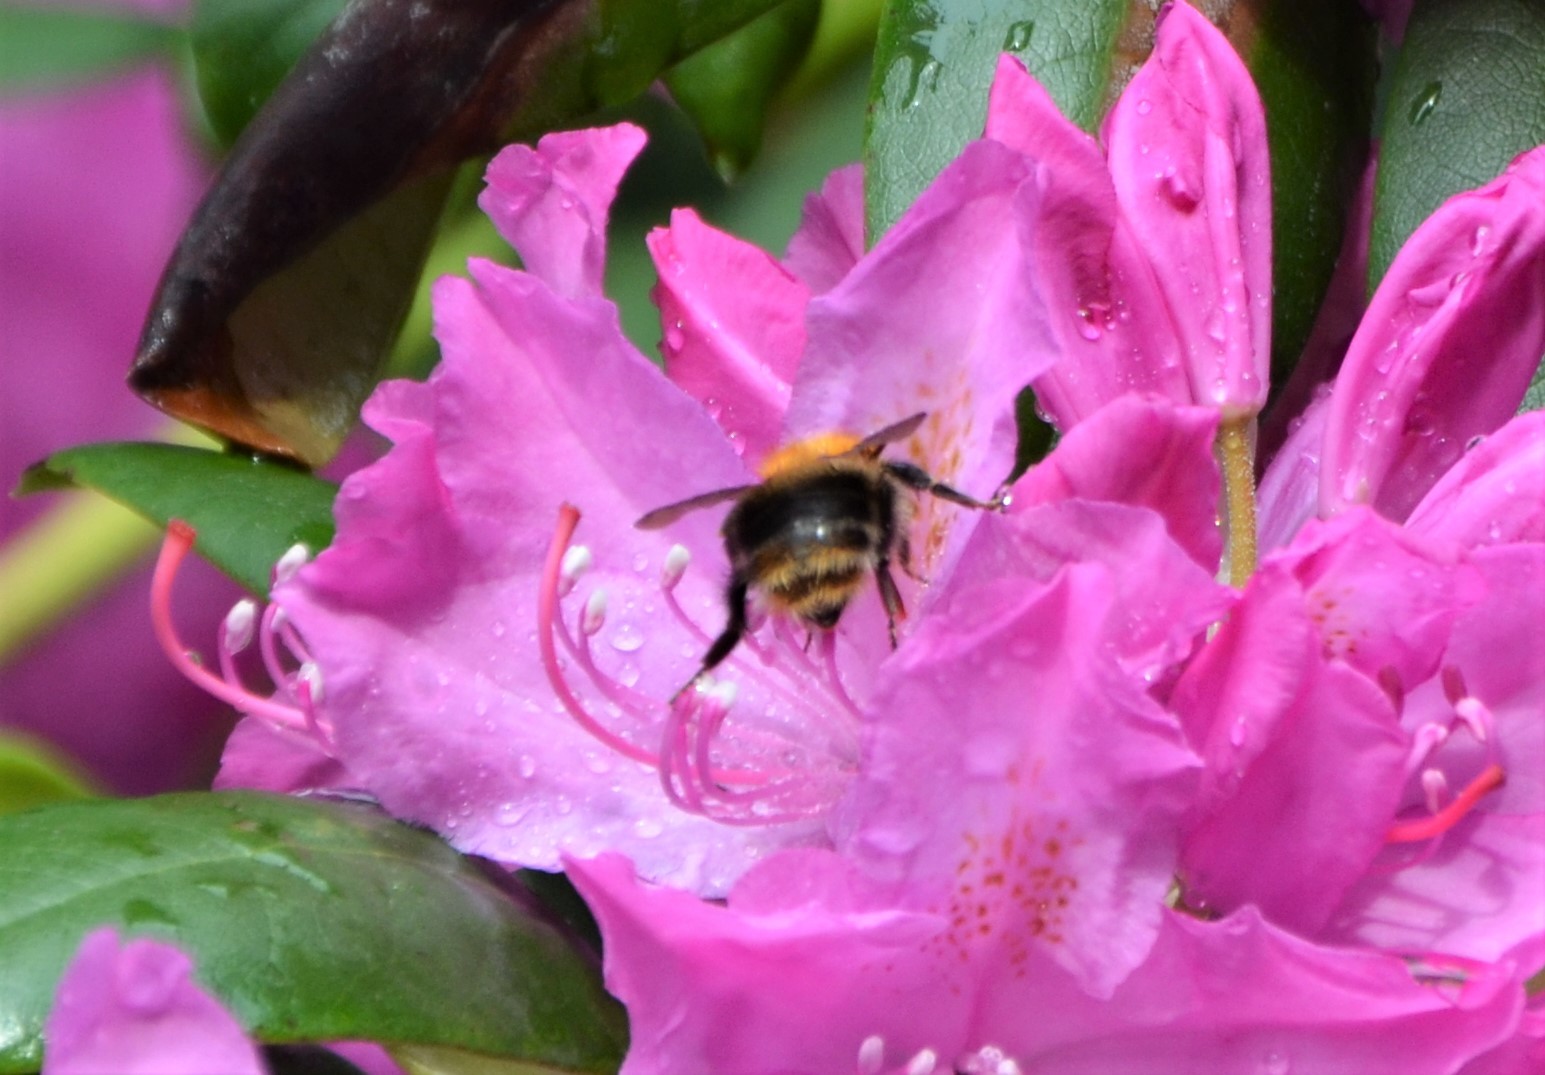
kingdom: Animalia
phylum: Arthropoda
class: Insecta
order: Hymenoptera
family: Apidae
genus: Bombus
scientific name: Bombus pascuorum
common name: Common carder bee
